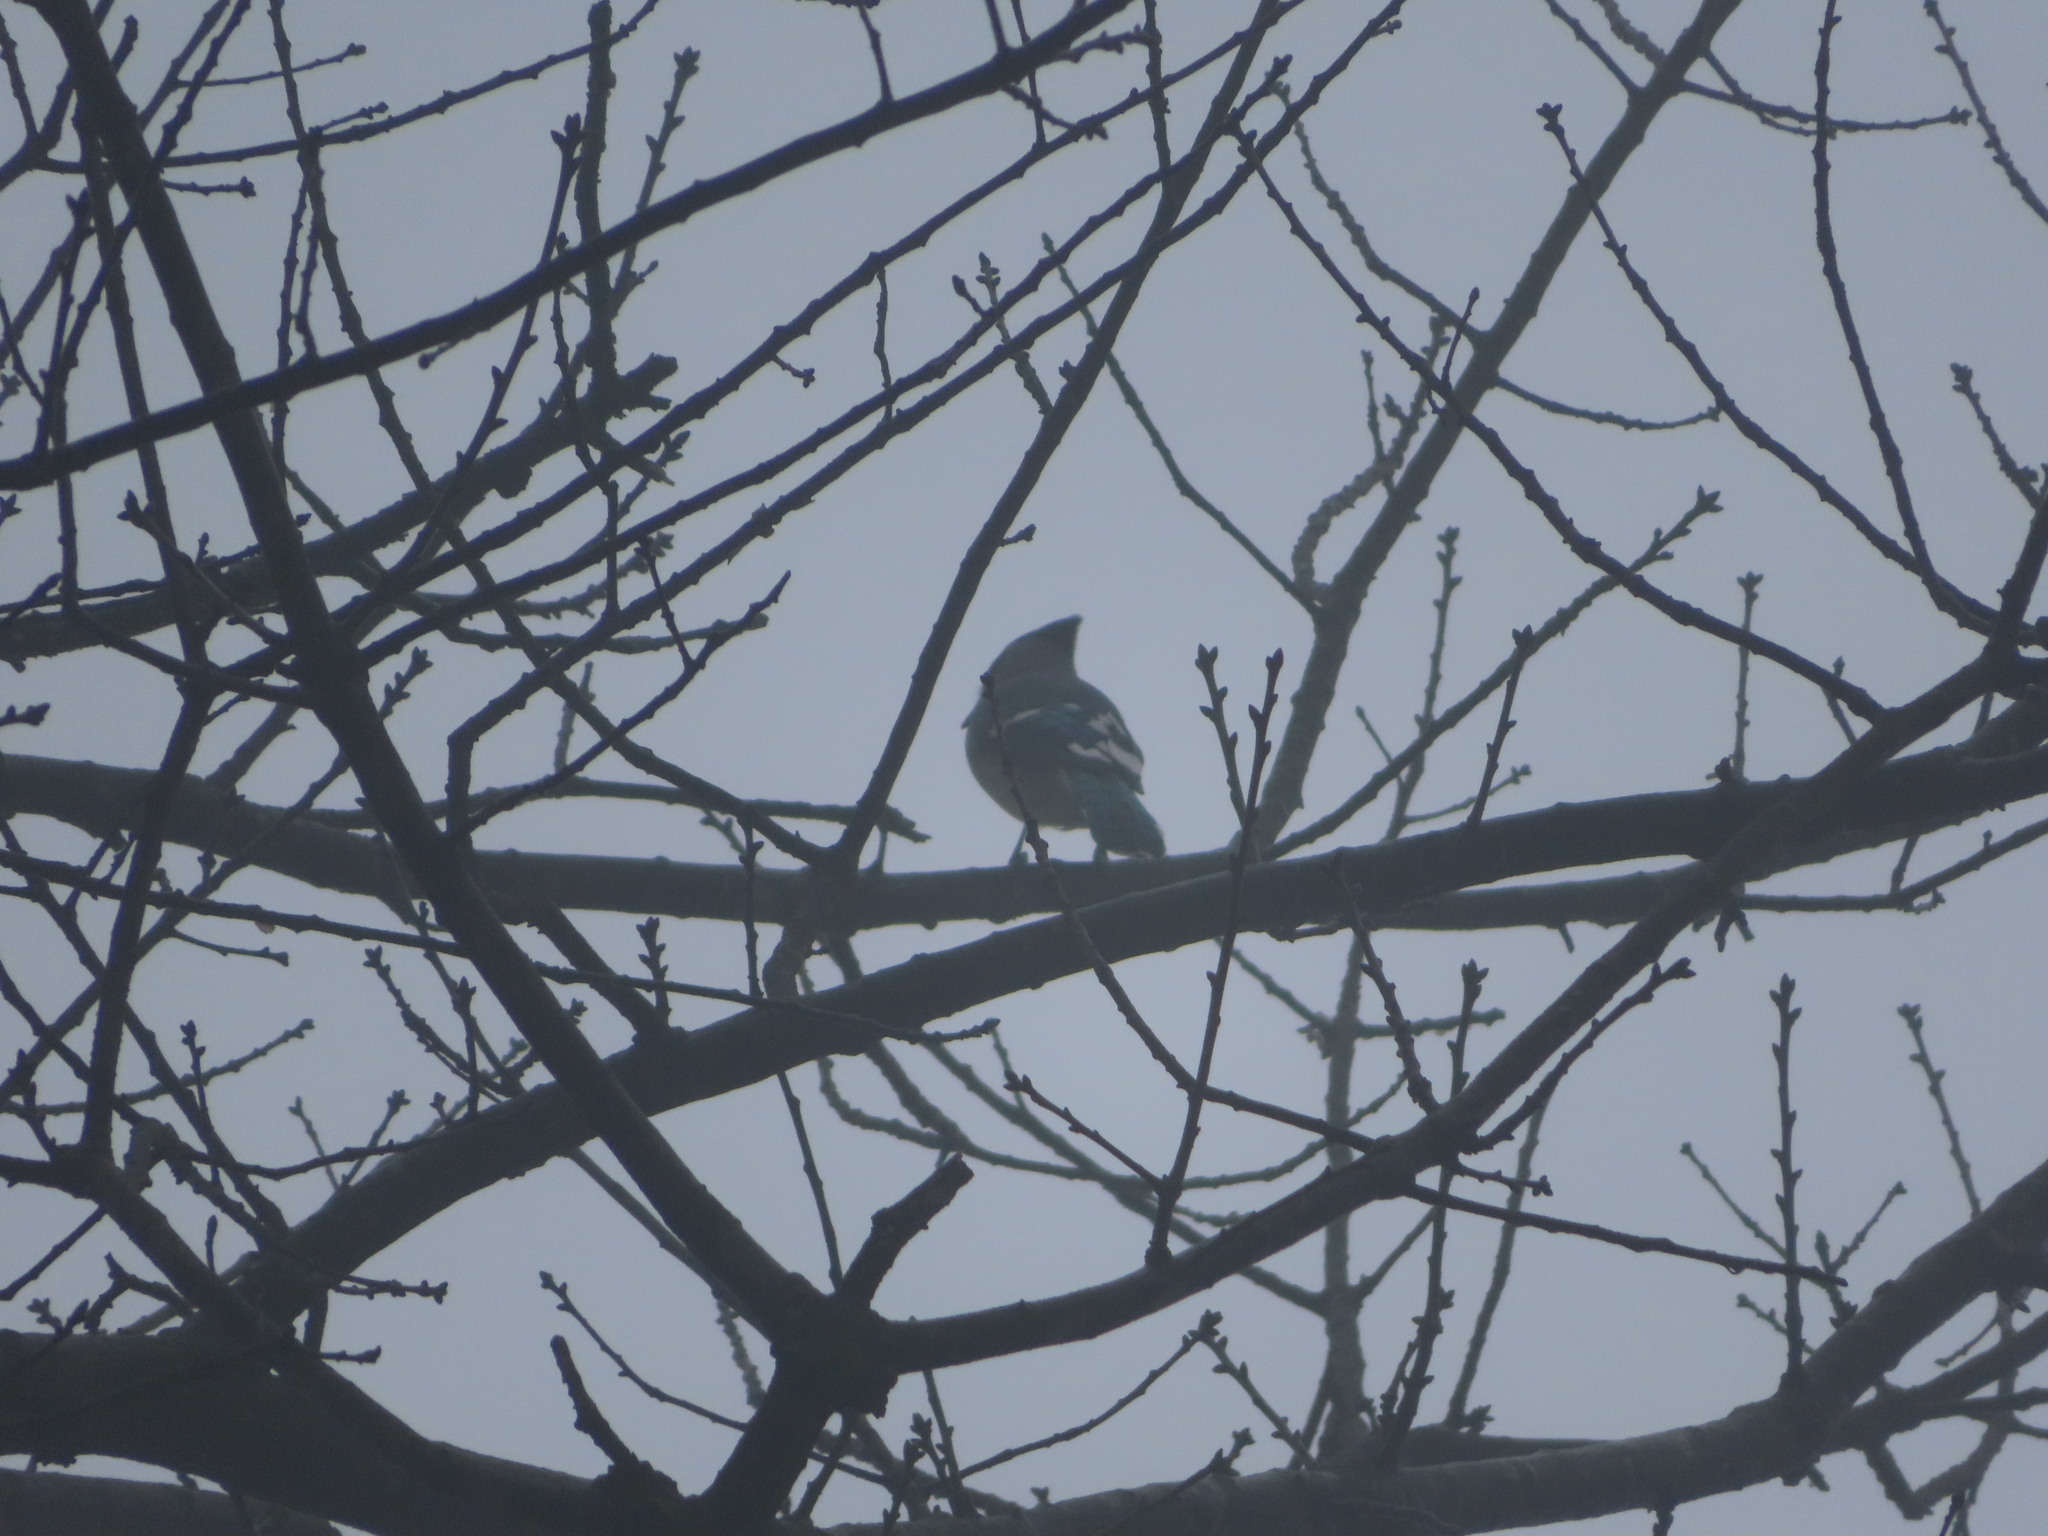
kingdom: Animalia
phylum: Chordata
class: Aves
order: Passeriformes
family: Corvidae
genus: Cyanocitta
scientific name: Cyanocitta cristata
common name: Blue jay
